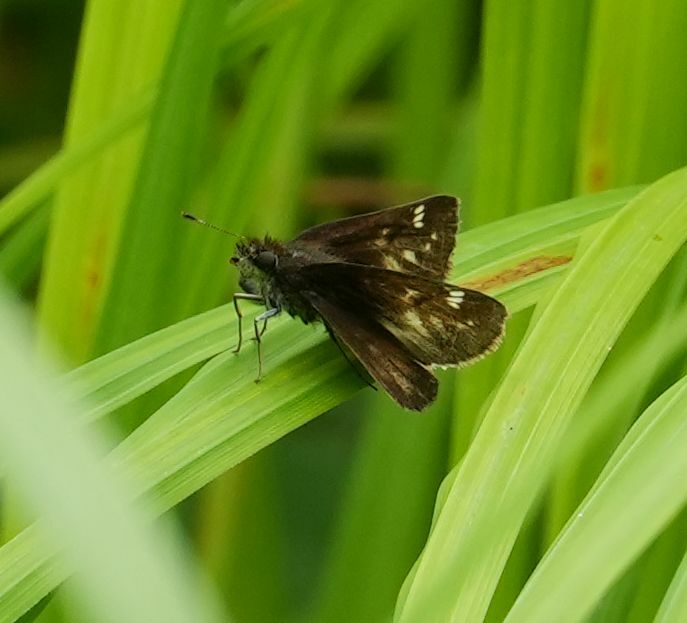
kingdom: Animalia
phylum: Arthropoda
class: Insecta
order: Lepidoptera
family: Hesperiidae
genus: Lon
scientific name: Lon hobomok
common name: Hobomok skipper
